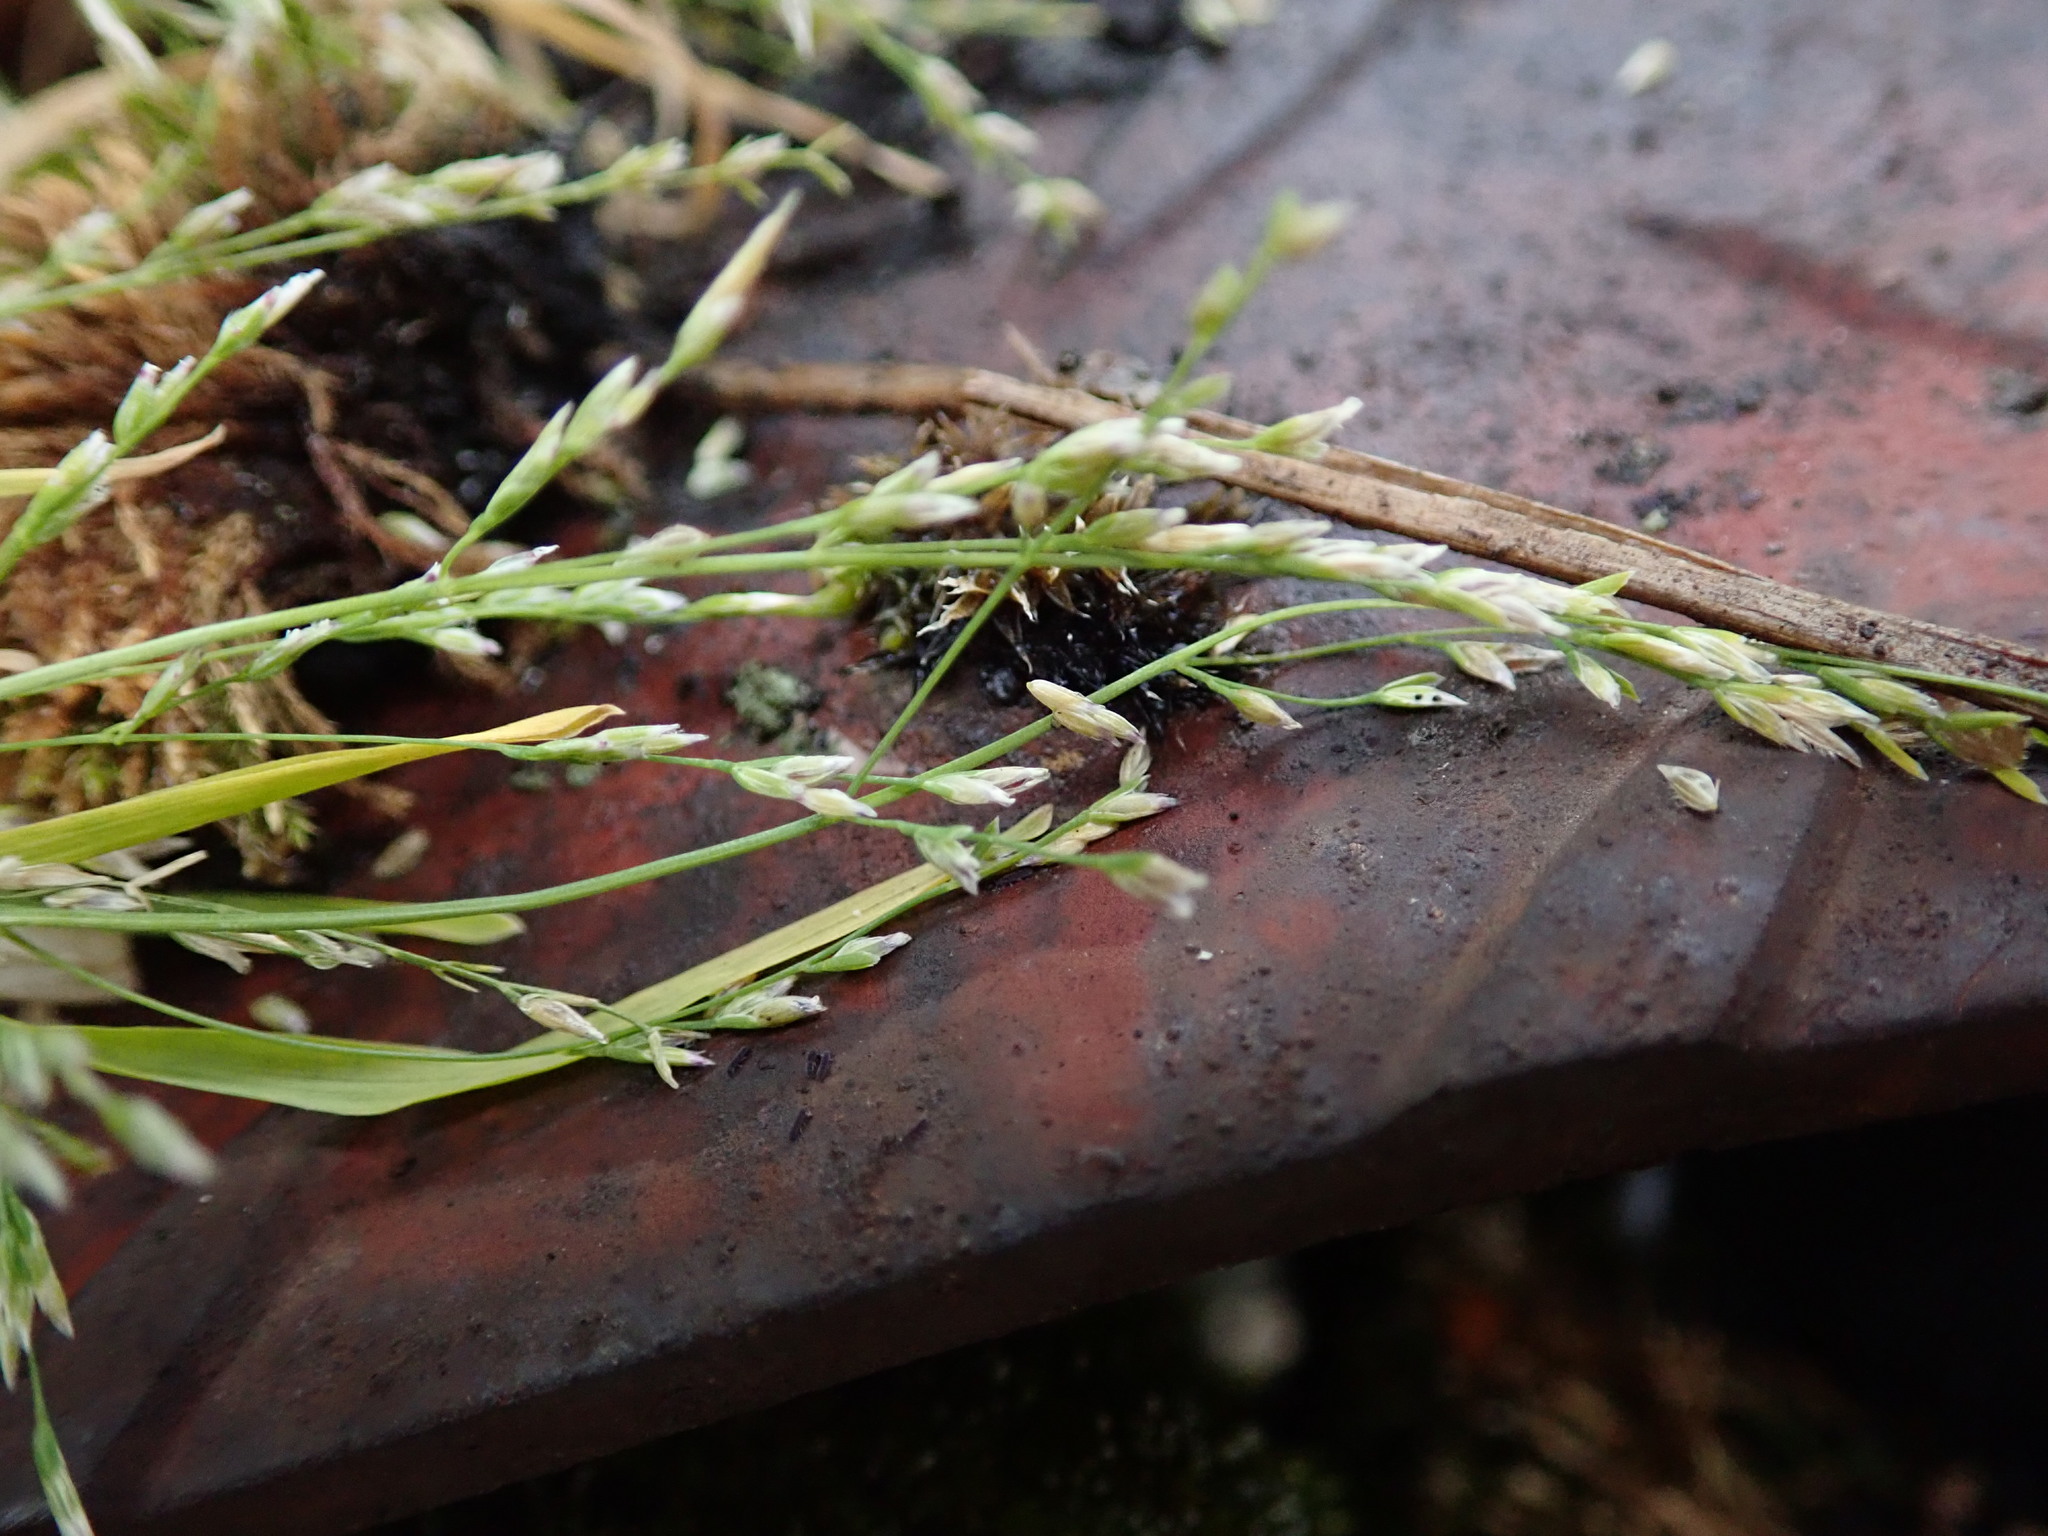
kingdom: Plantae
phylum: Tracheophyta
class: Liliopsida
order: Poales
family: Poaceae
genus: Poa
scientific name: Poa infirma
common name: Weak bluegrass
